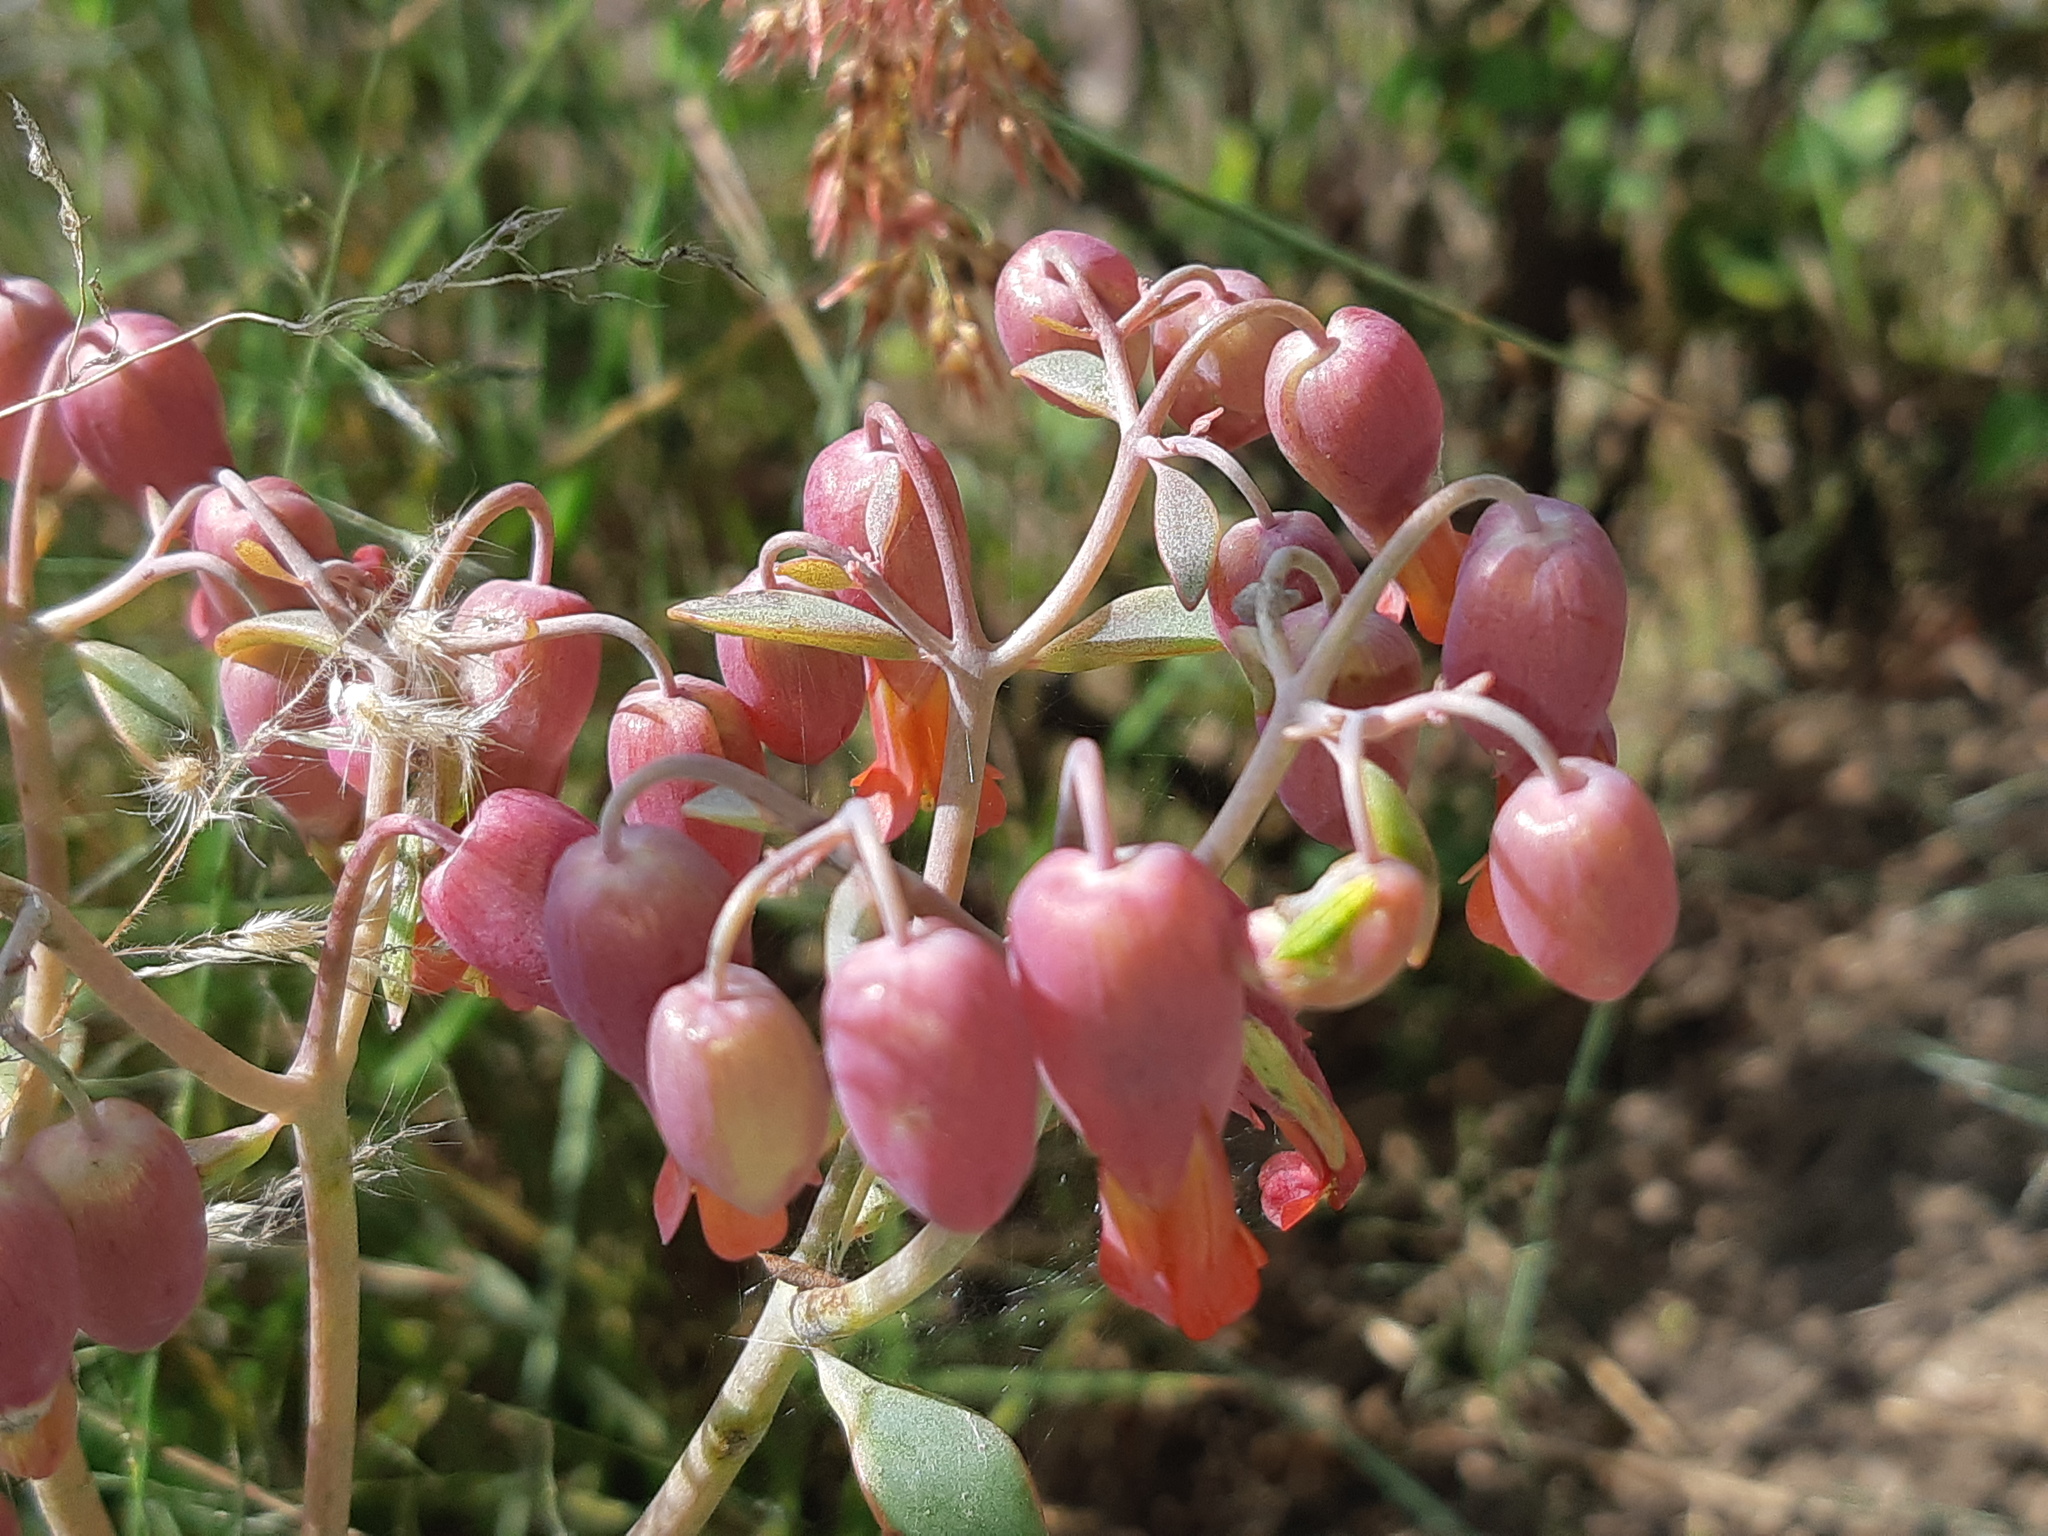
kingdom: Plantae
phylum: Tracheophyta
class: Magnoliopsida
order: Saxifragales
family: Crassulaceae
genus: Kalanchoe
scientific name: Kalanchoe laxiflora
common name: Milky widow's thrill
